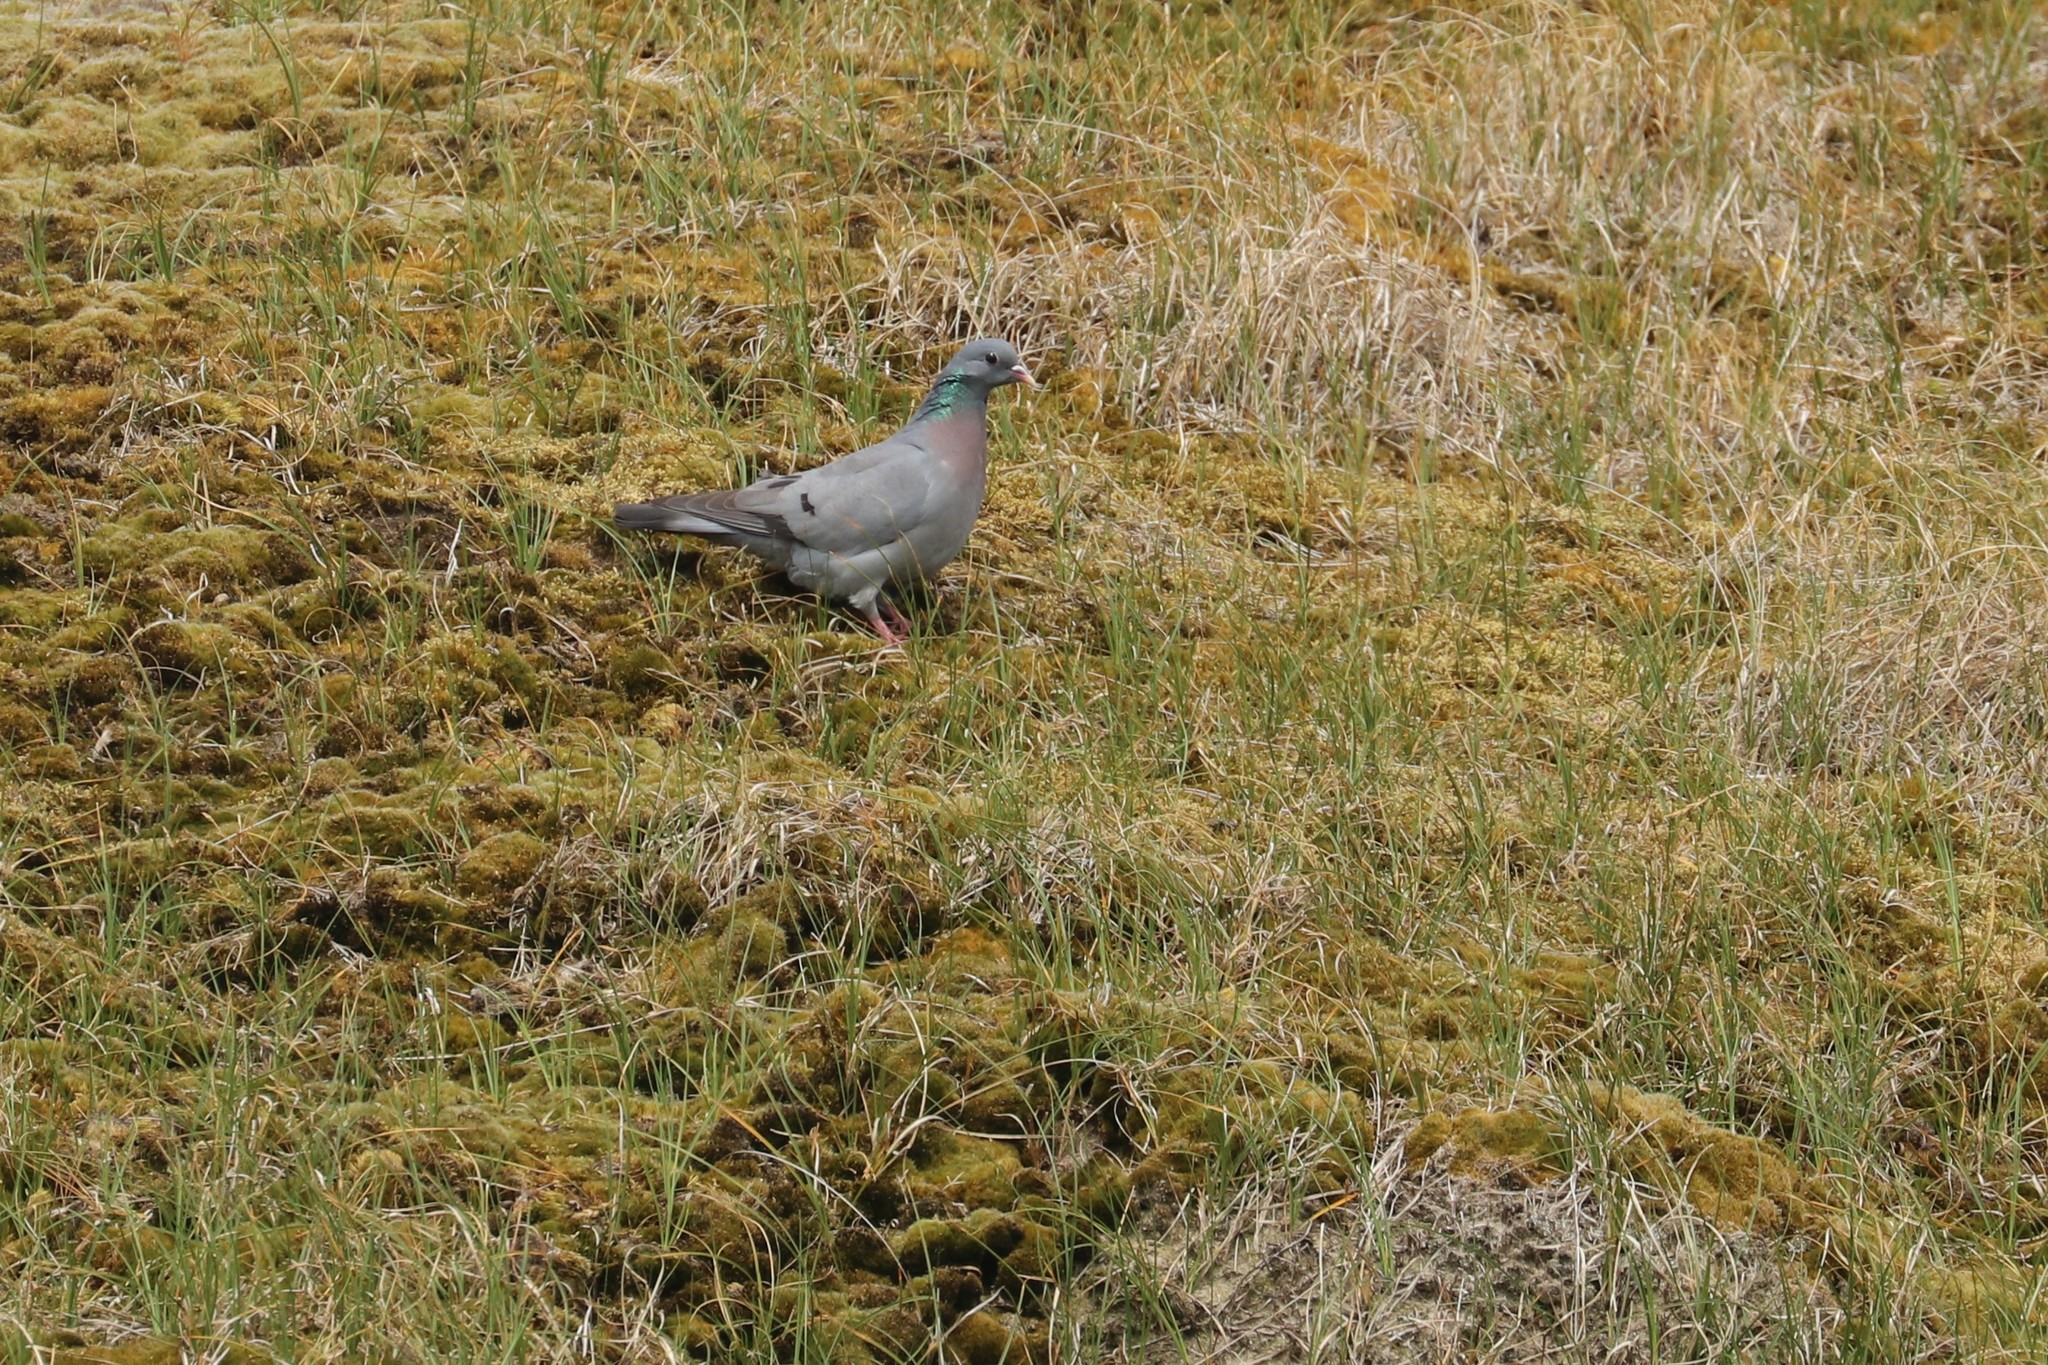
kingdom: Animalia
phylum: Chordata
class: Aves
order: Columbiformes
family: Columbidae
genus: Columba
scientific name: Columba oenas
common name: Stock dove
